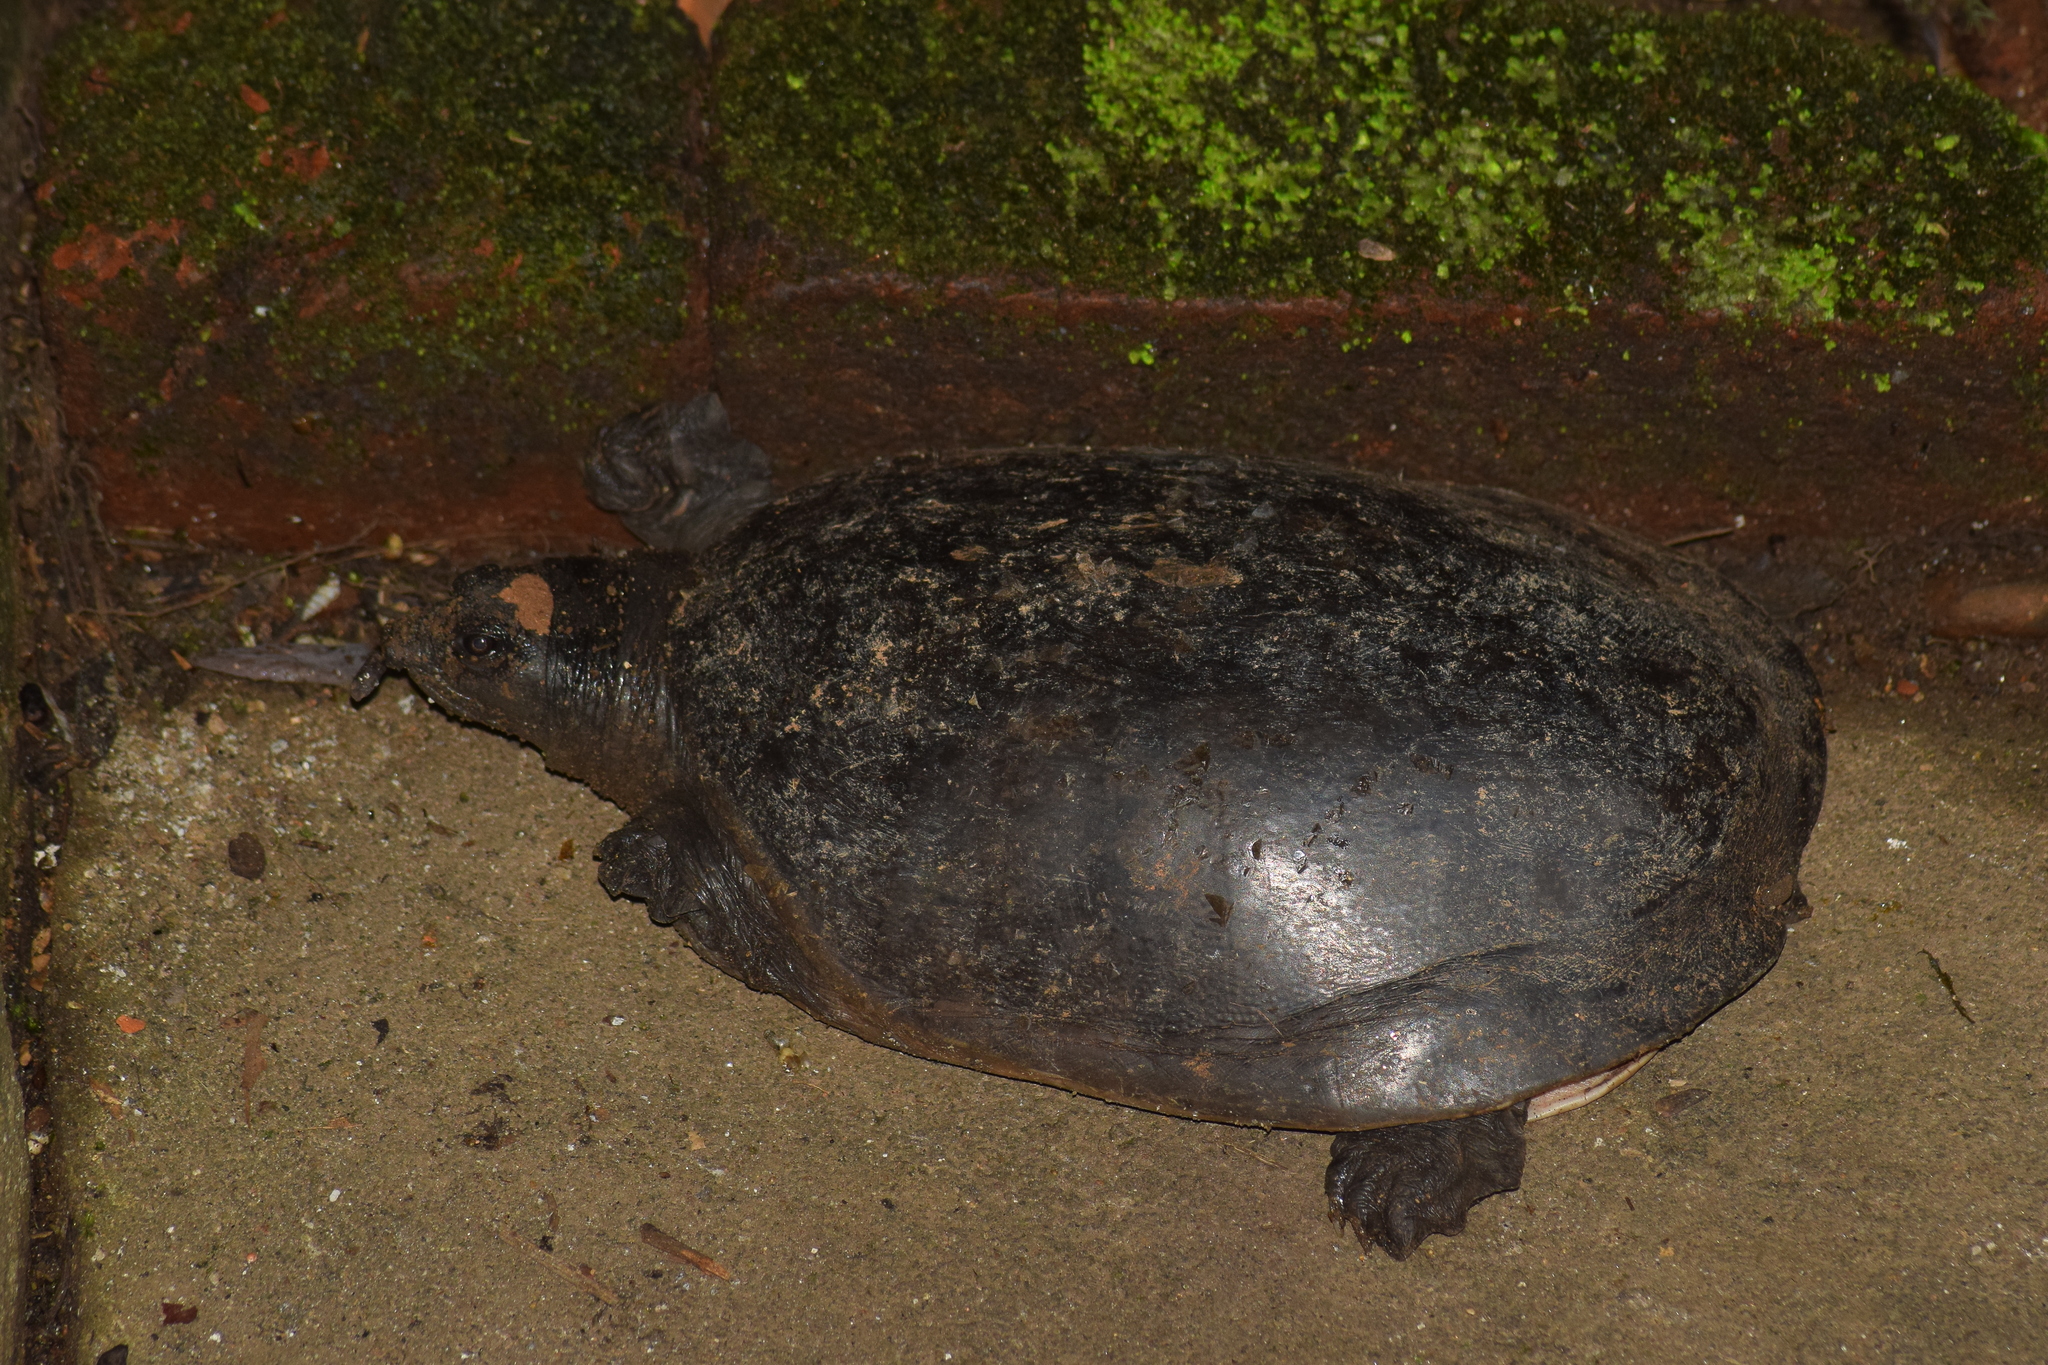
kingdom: Animalia
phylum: Chordata
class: Testudines
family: Trionychidae
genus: Lissemys
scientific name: Lissemys punctata
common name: Indian flap-shelled turtle
